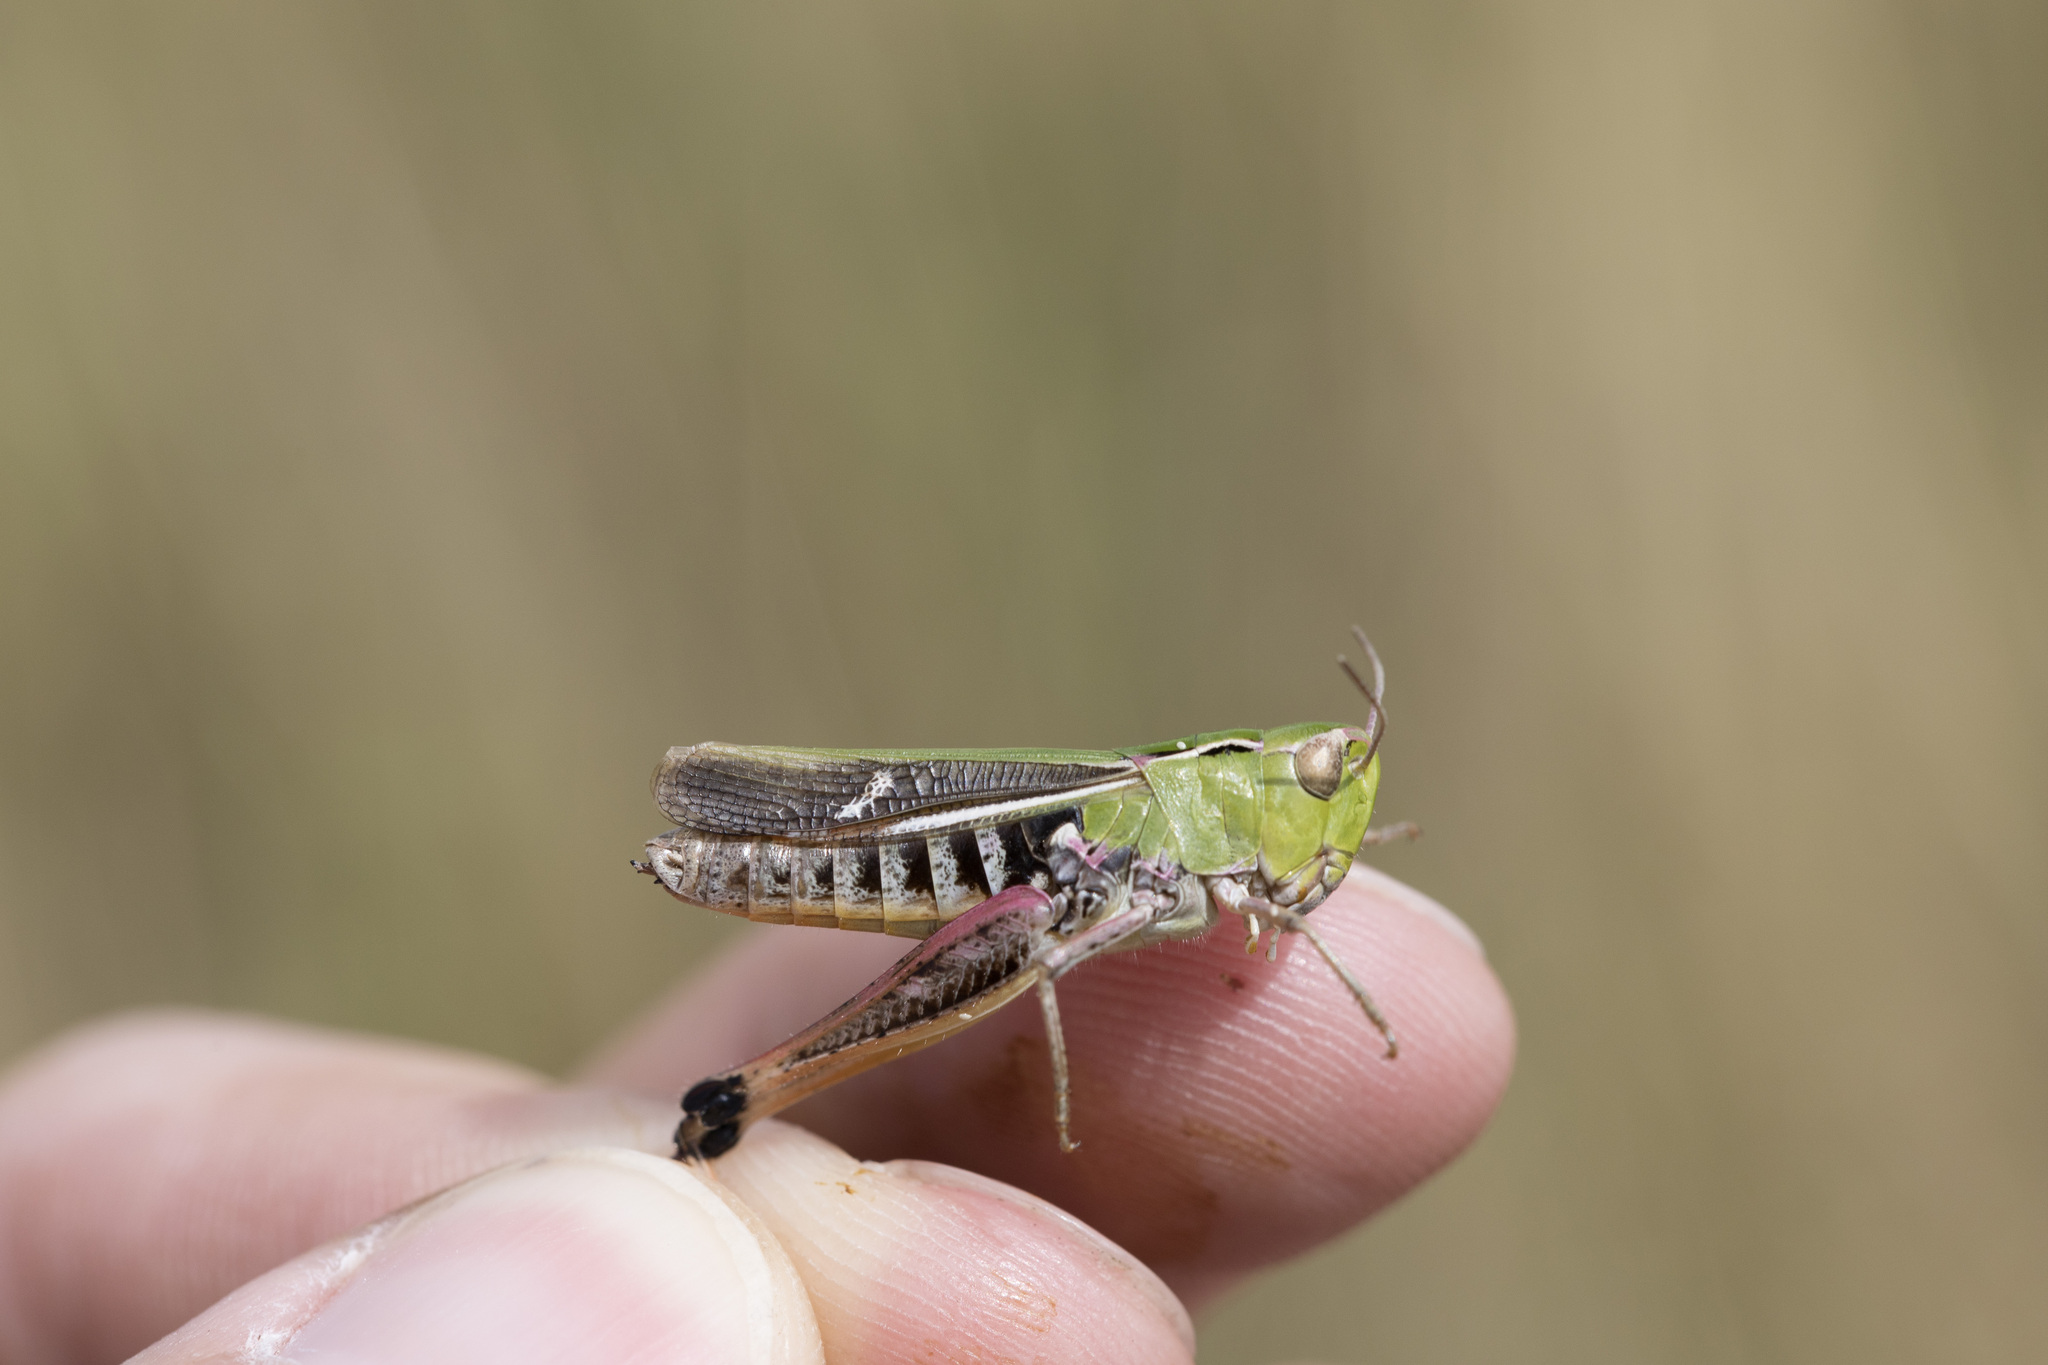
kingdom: Animalia
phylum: Arthropoda
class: Insecta
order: Orthoptera
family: Acrididae
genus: Stenobothrus
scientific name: Stenobothrus lineatus
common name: Stripe-winged grasshopper
